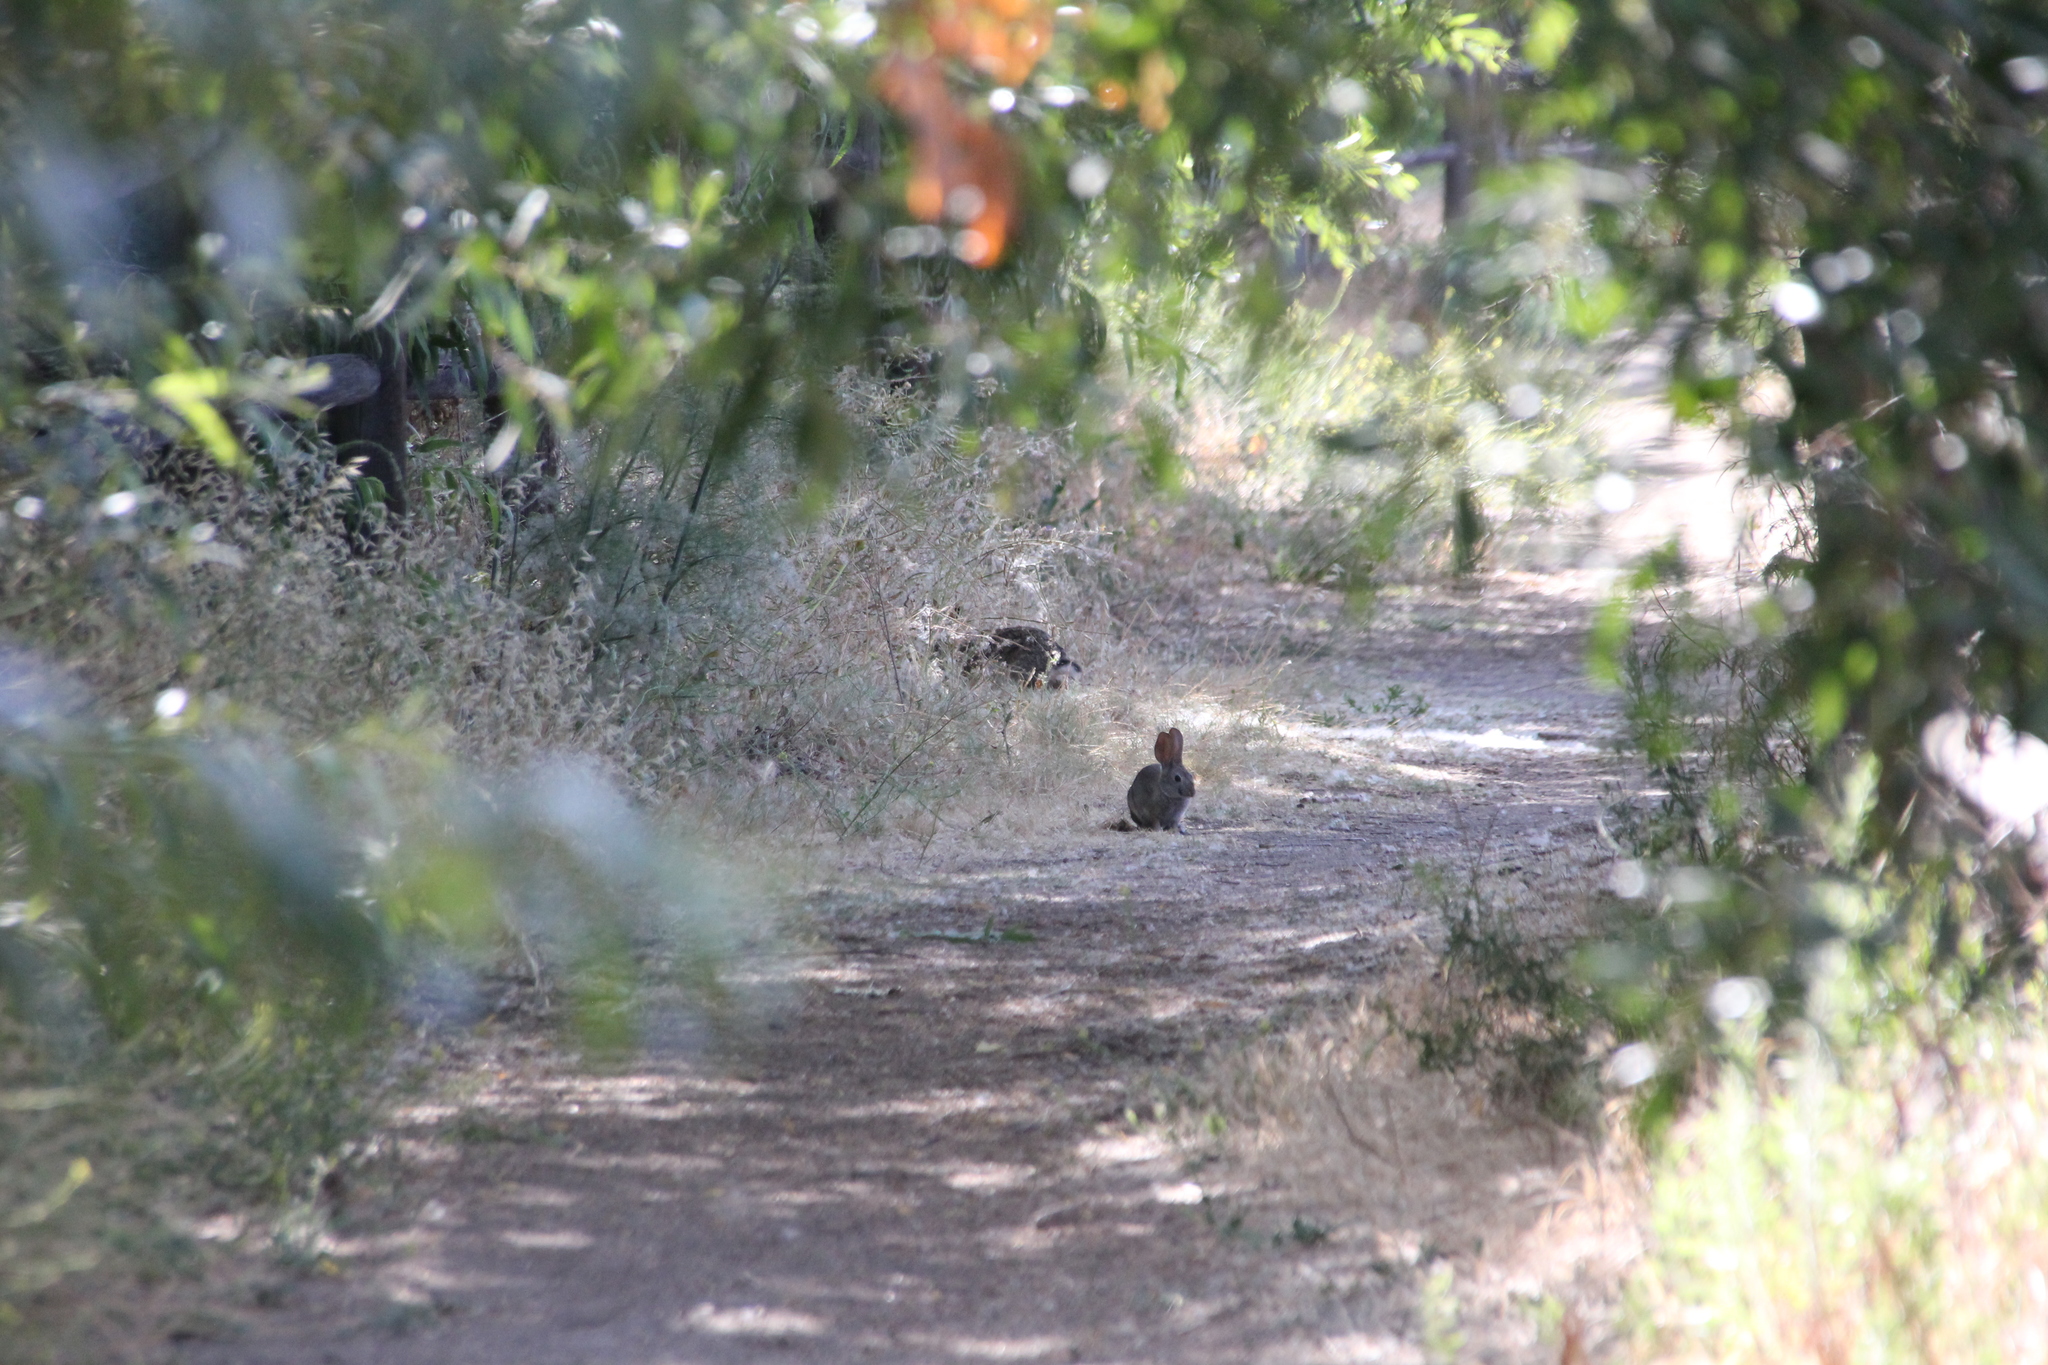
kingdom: Animalia
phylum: Chordata
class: Mammalia
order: Lagomorpha
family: Leporidae
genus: Sylvilagus
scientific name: Sylvilagus bachmani
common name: Brush rabbit
